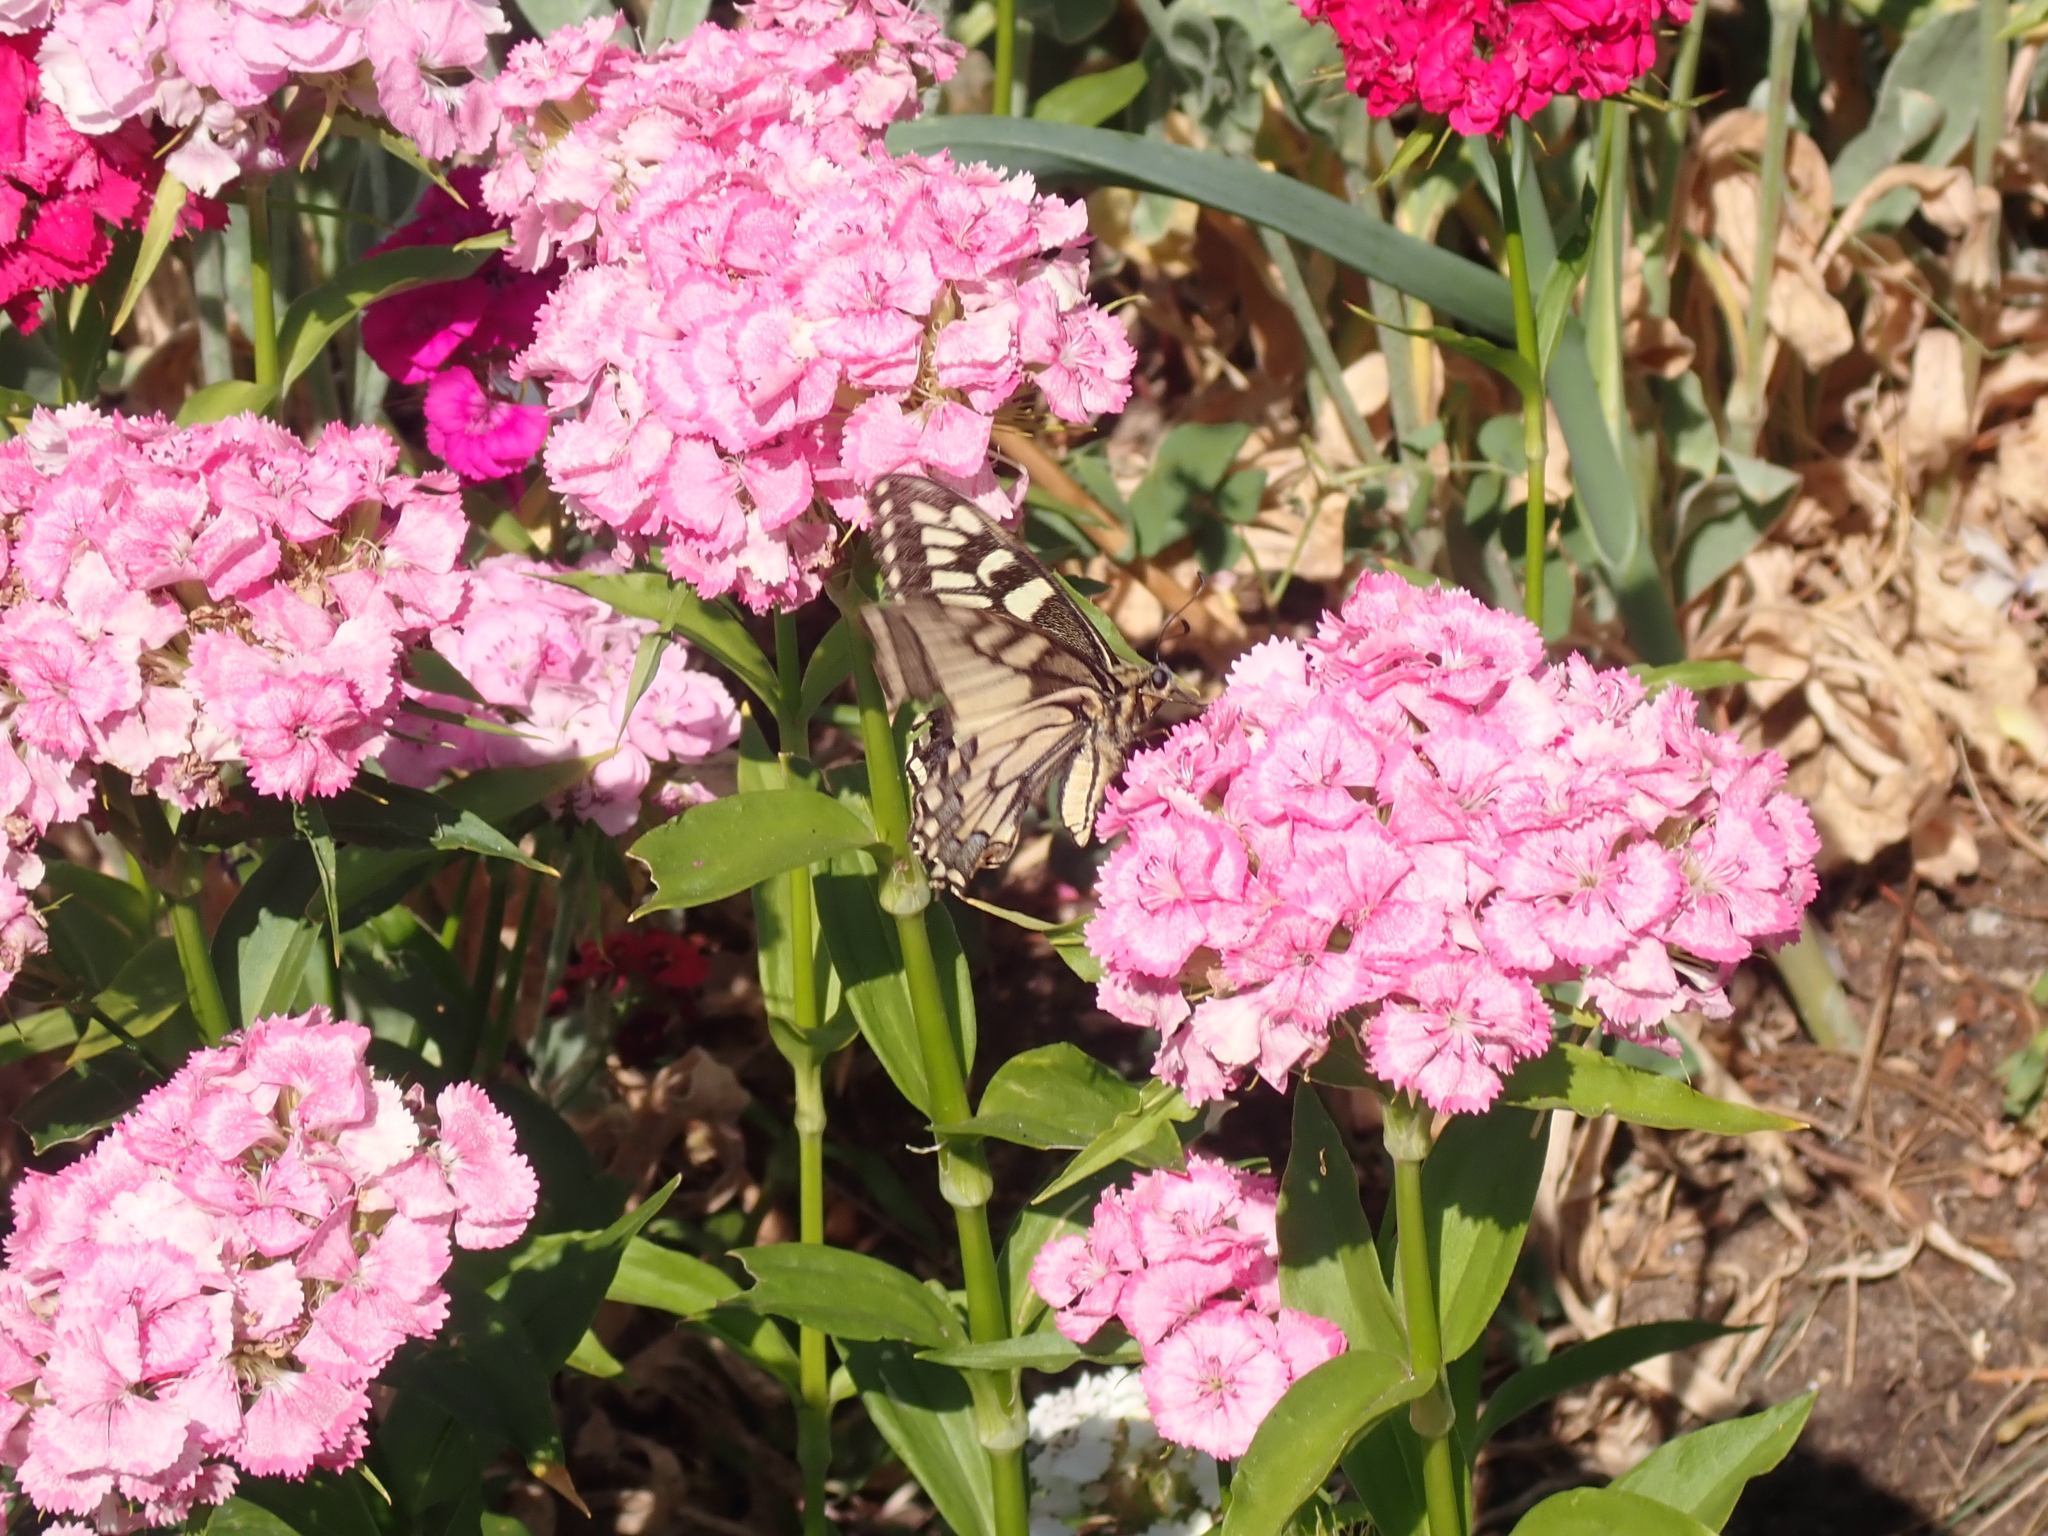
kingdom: Animalia
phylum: Arthropoda
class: Insecta
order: Lepidoptera
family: Papilionidae
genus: Papilio
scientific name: Papilio machaon
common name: Swallowtail
